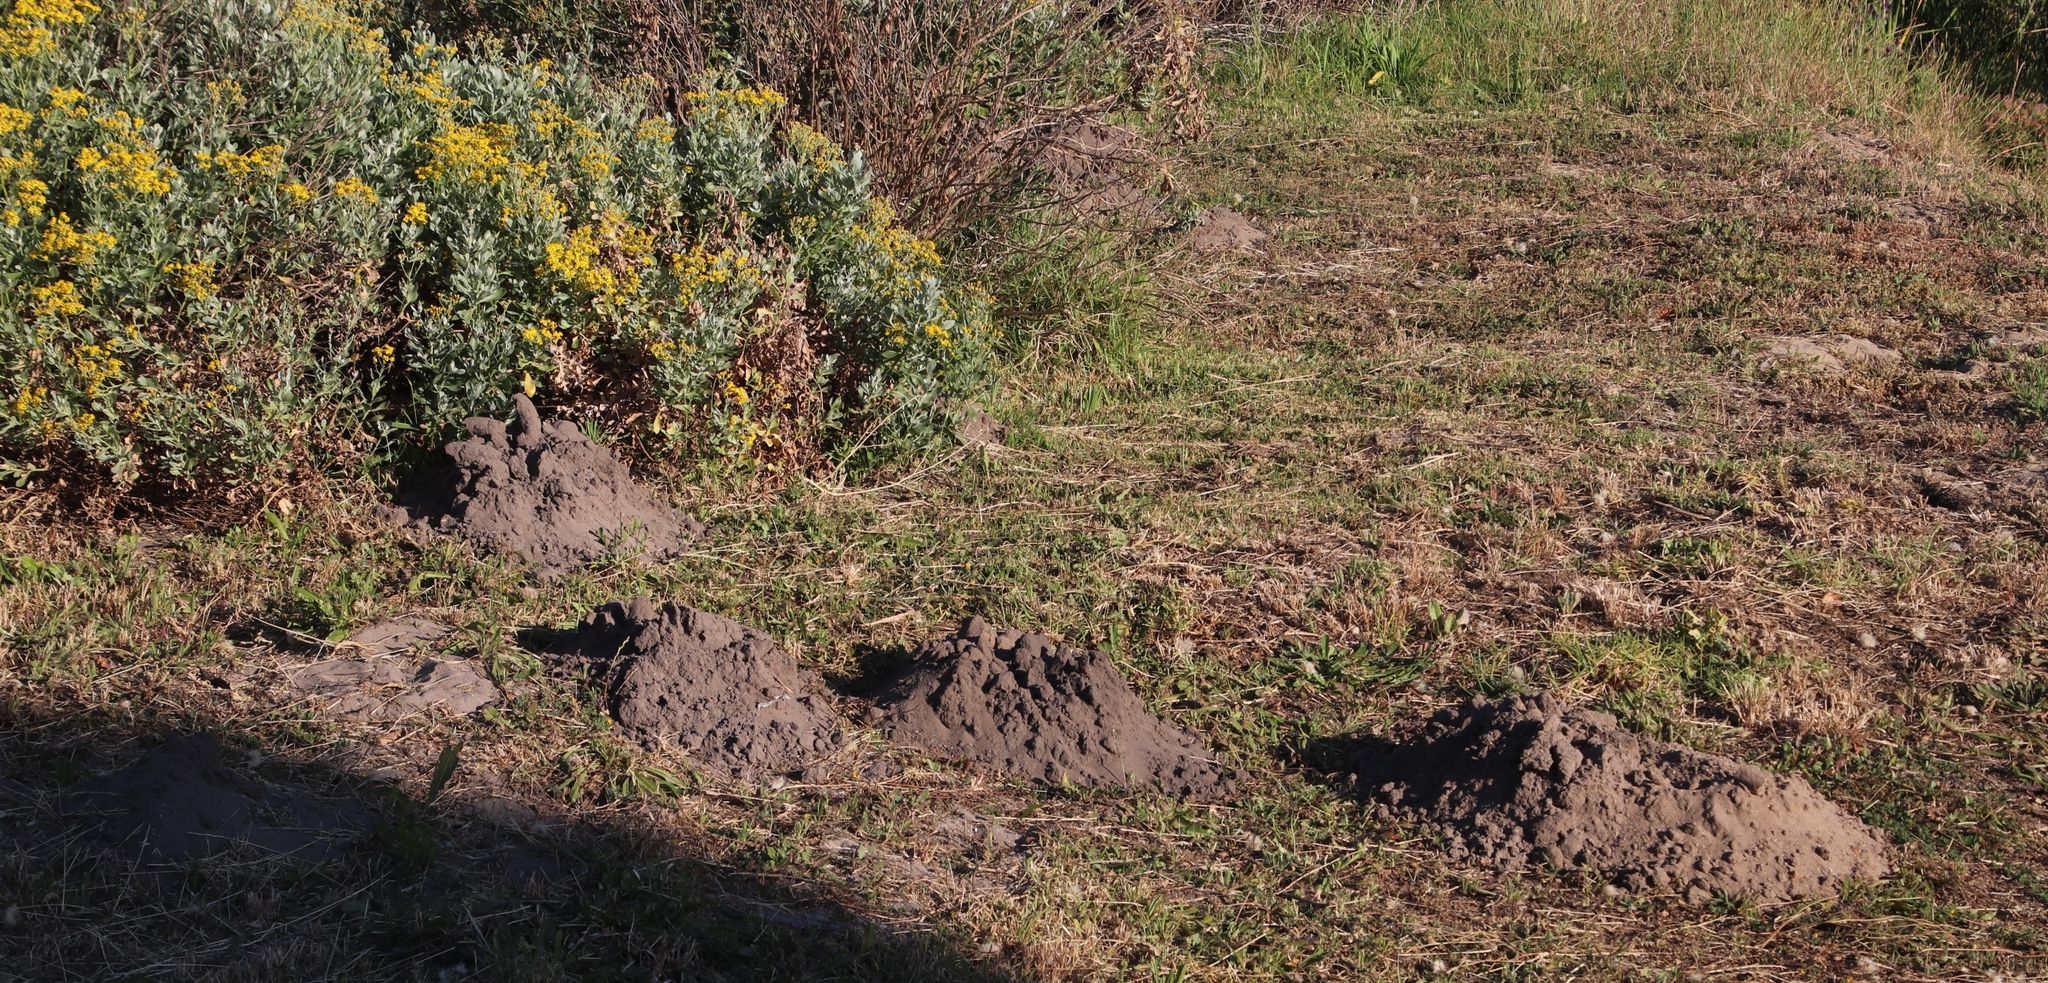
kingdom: Animalia
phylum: Chordata
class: Mammalia
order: Rodentia
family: Bathyergidae
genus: Bathyergus
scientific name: Bathyergus suillus
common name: Cape dune mole rat
